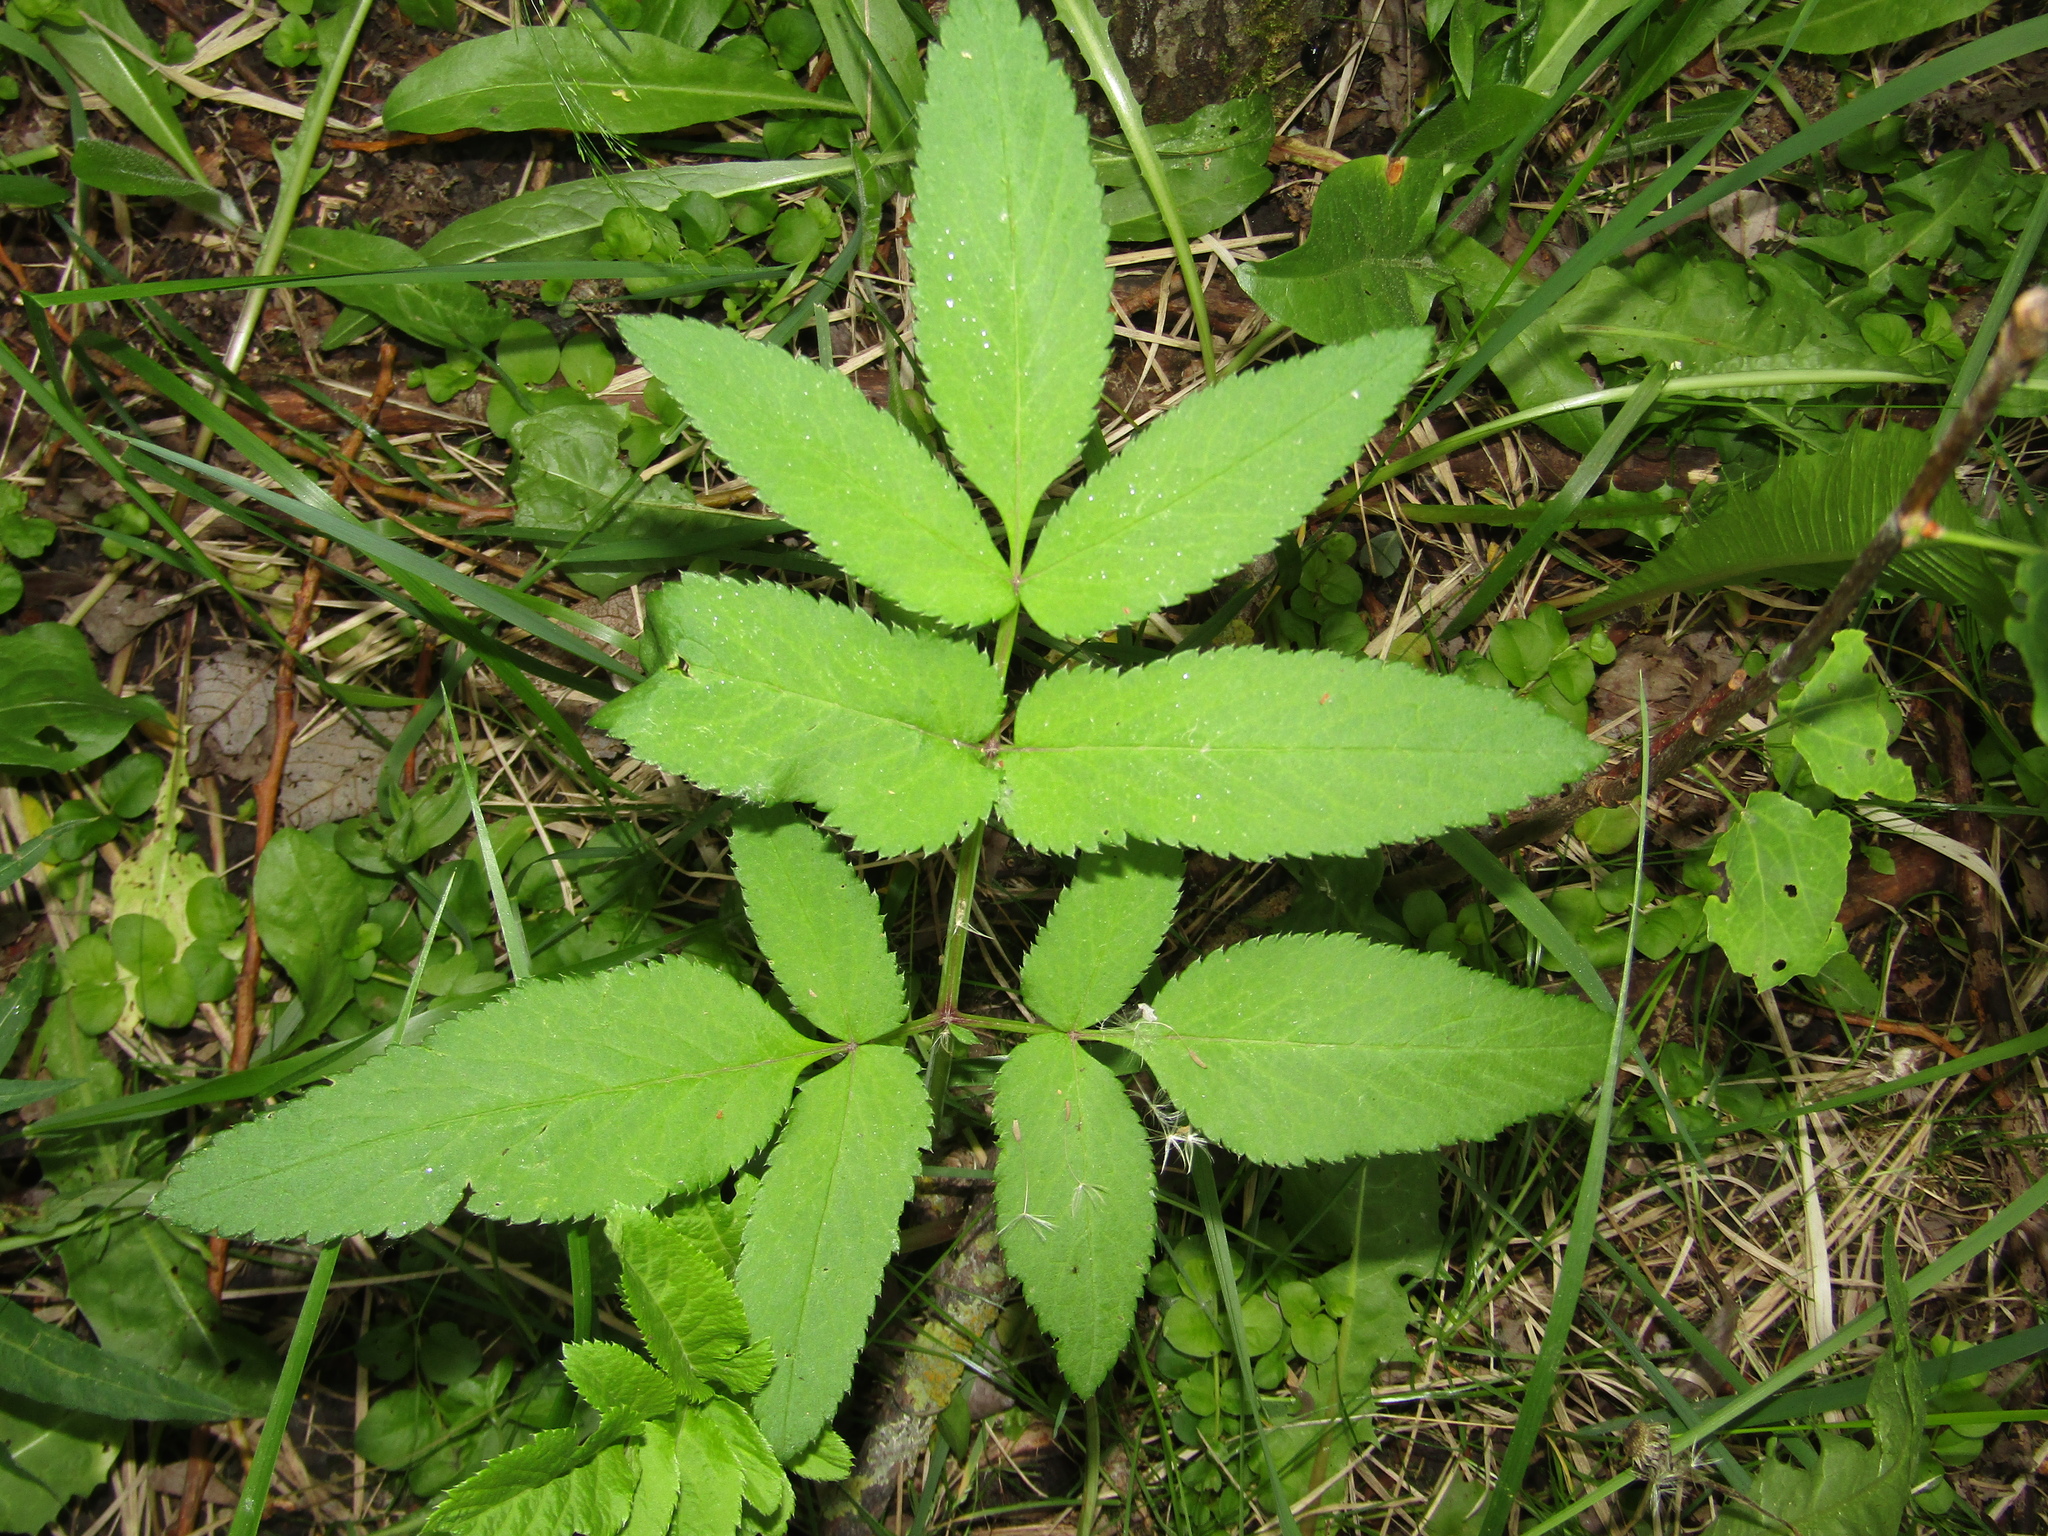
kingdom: Plantae
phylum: Tracheophyta
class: Magnoliopsida
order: Apiales
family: Apiaceae
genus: Angelica
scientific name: Angelica sylvestris
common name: Wild angelica
